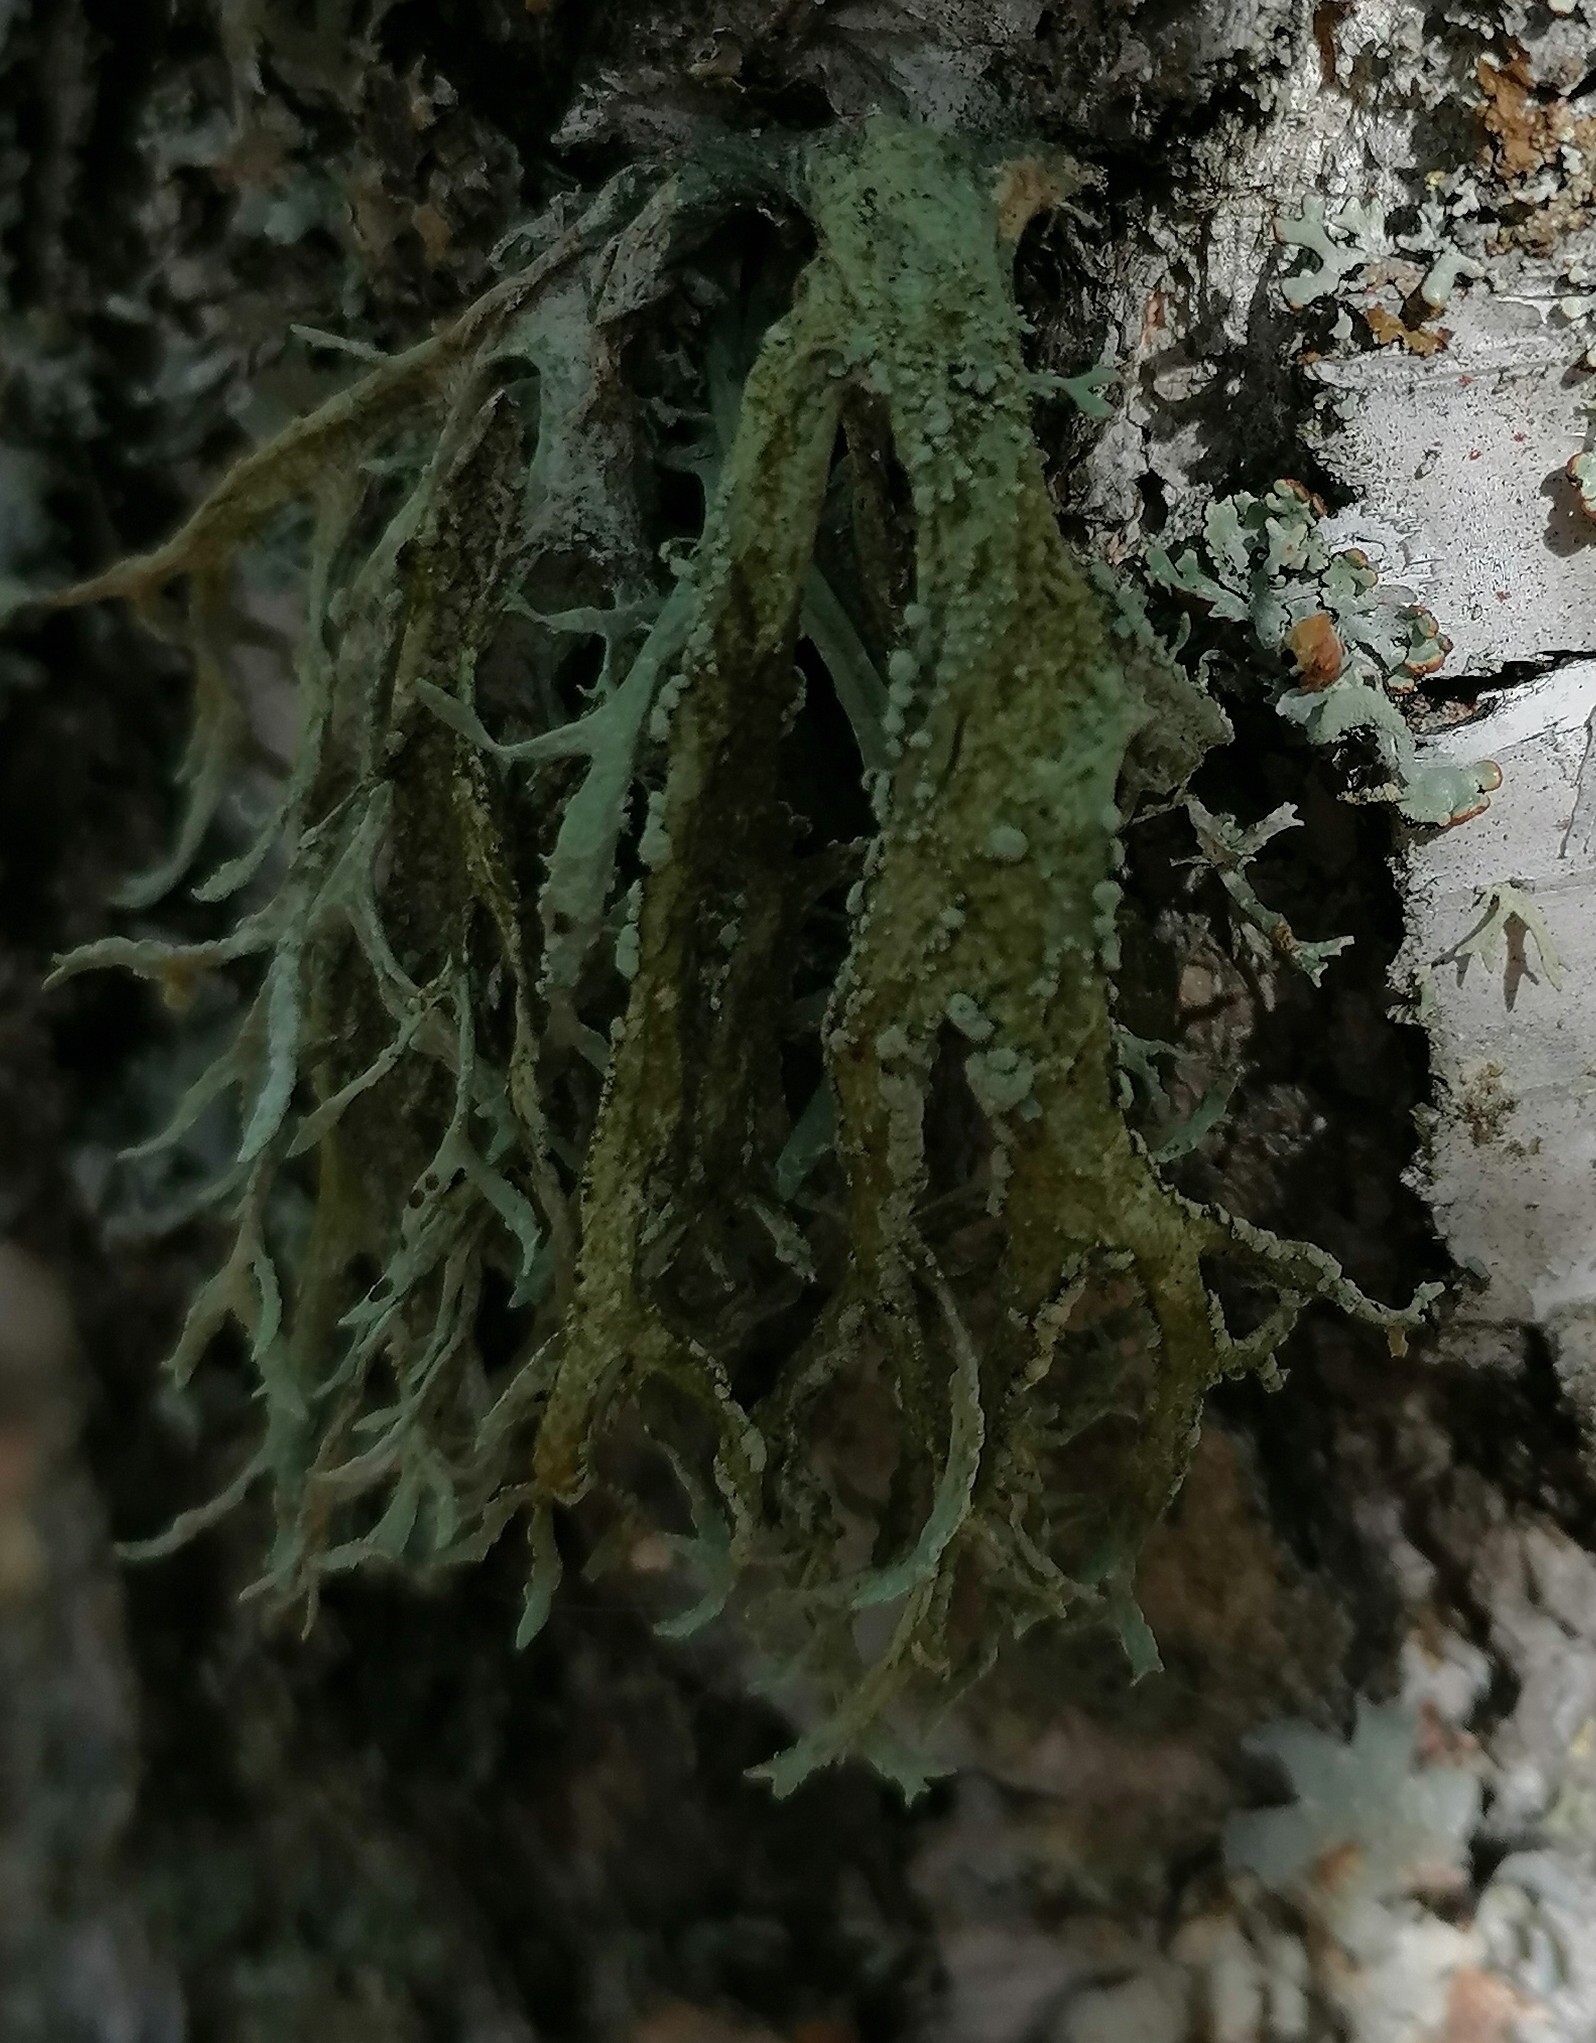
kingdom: Fungi
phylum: Ascomycota
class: Lecanoromycetes
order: Lecanorales
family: Parmeliaceae
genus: Evernia
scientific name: Evernia prunastri
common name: Oak moss
